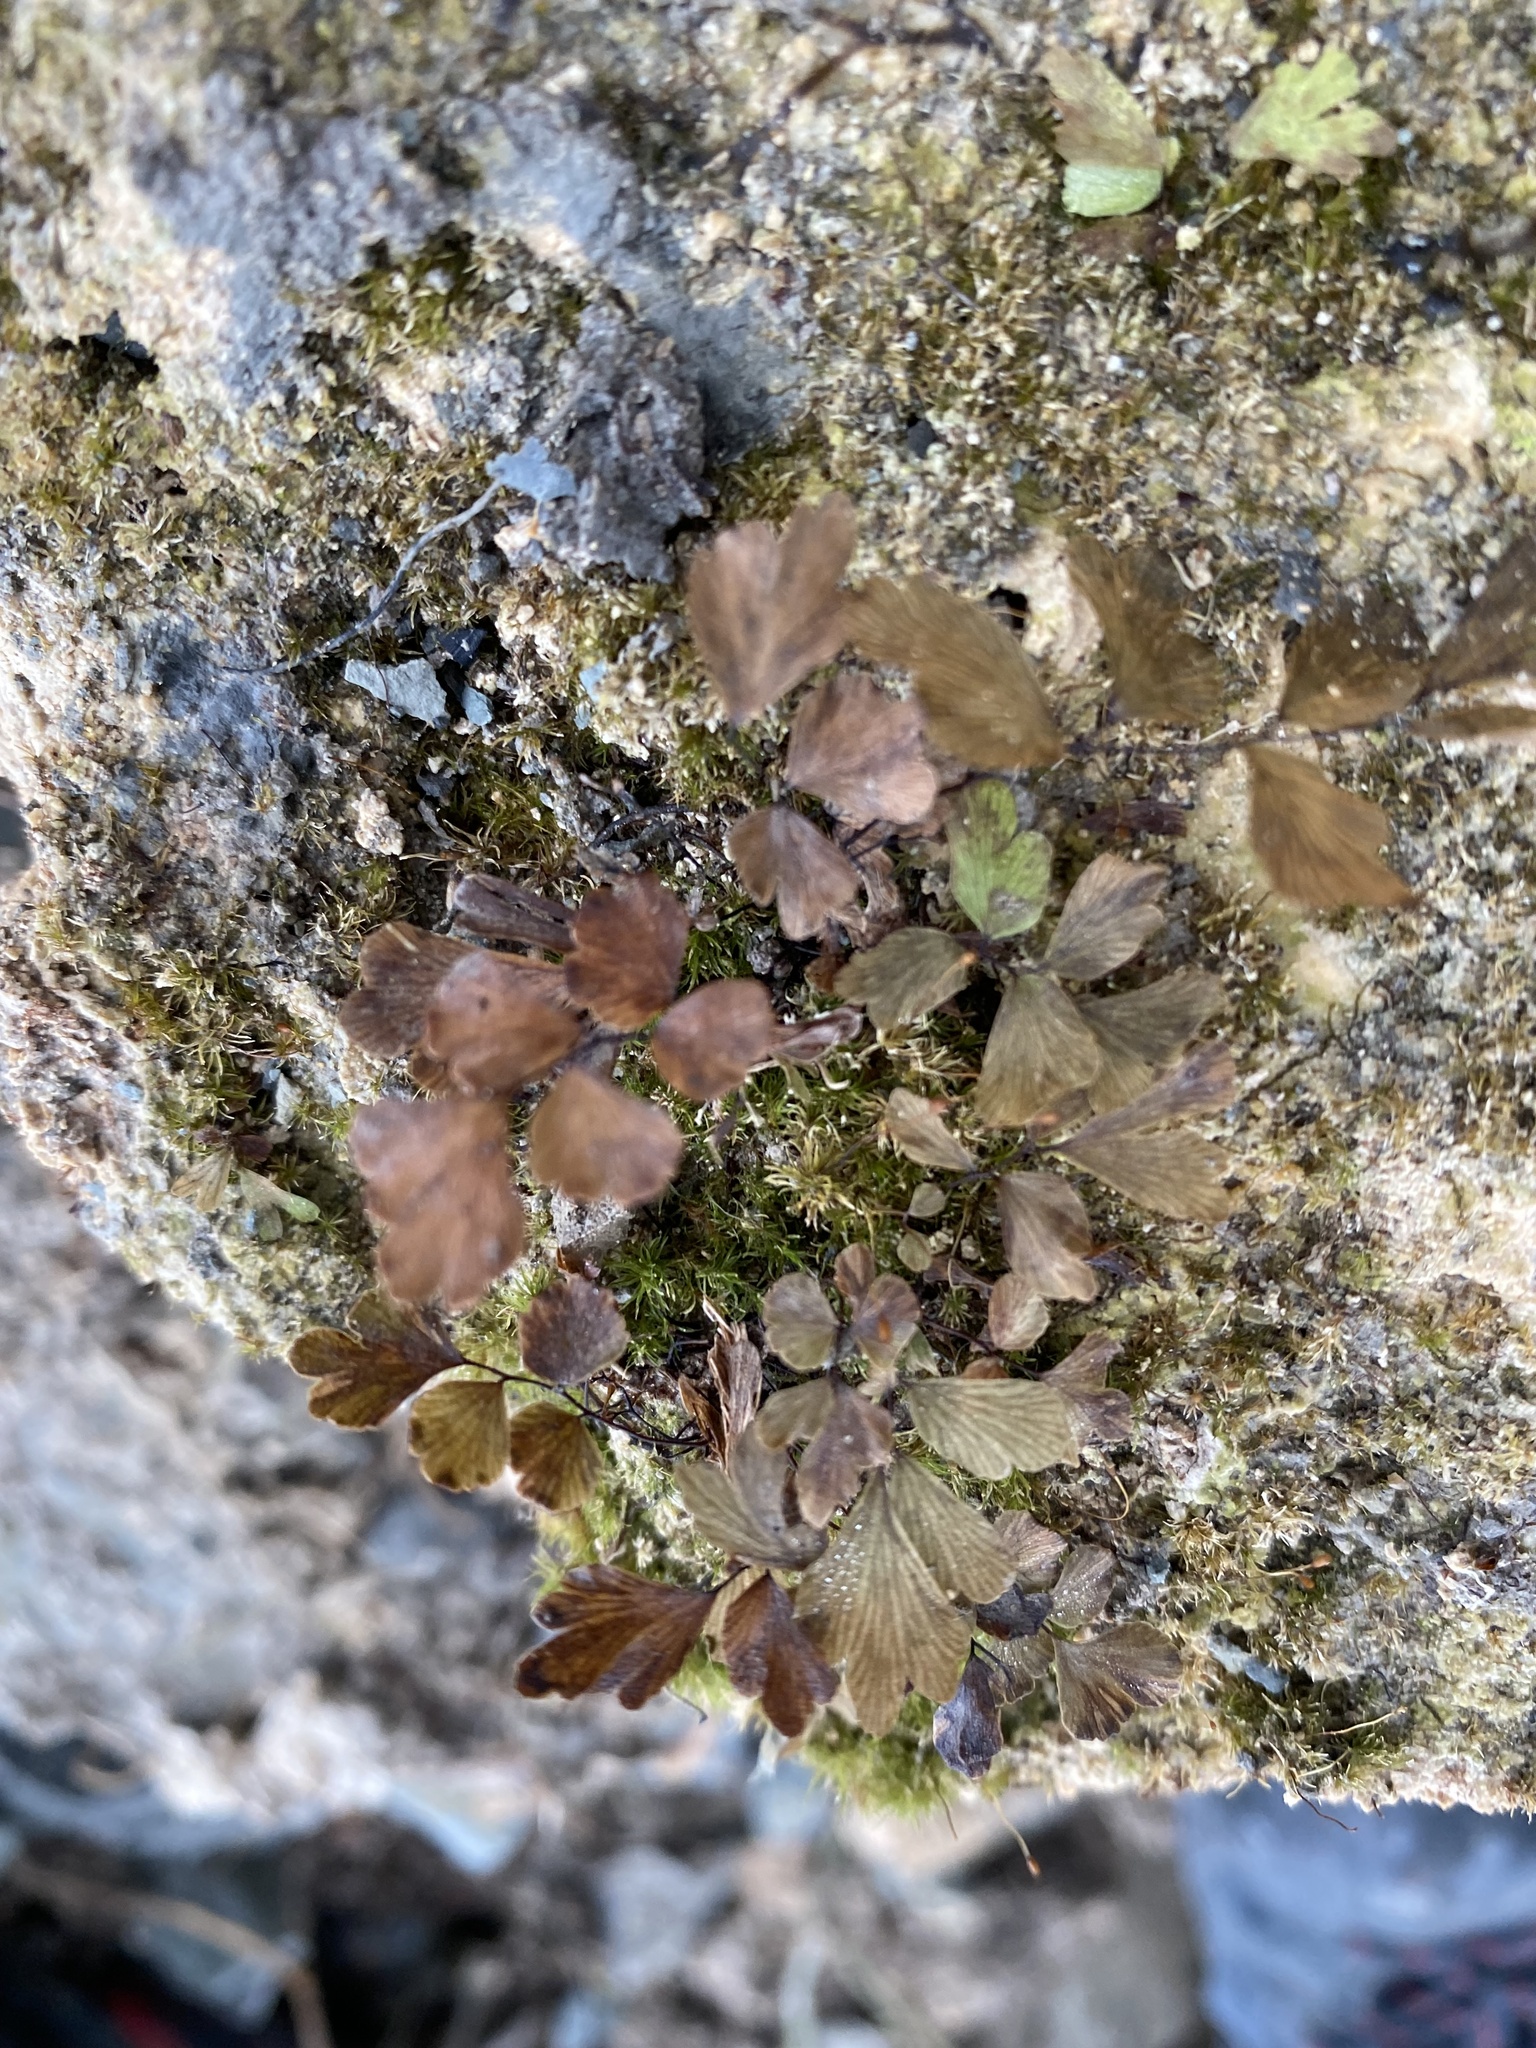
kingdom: Plantae
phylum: Tracheophyta
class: Polypodiopsida
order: Polypodiales
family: Pteridaceae
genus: Adiantum
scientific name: Adiantum capillus-veneris
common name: Maidenhair fern
